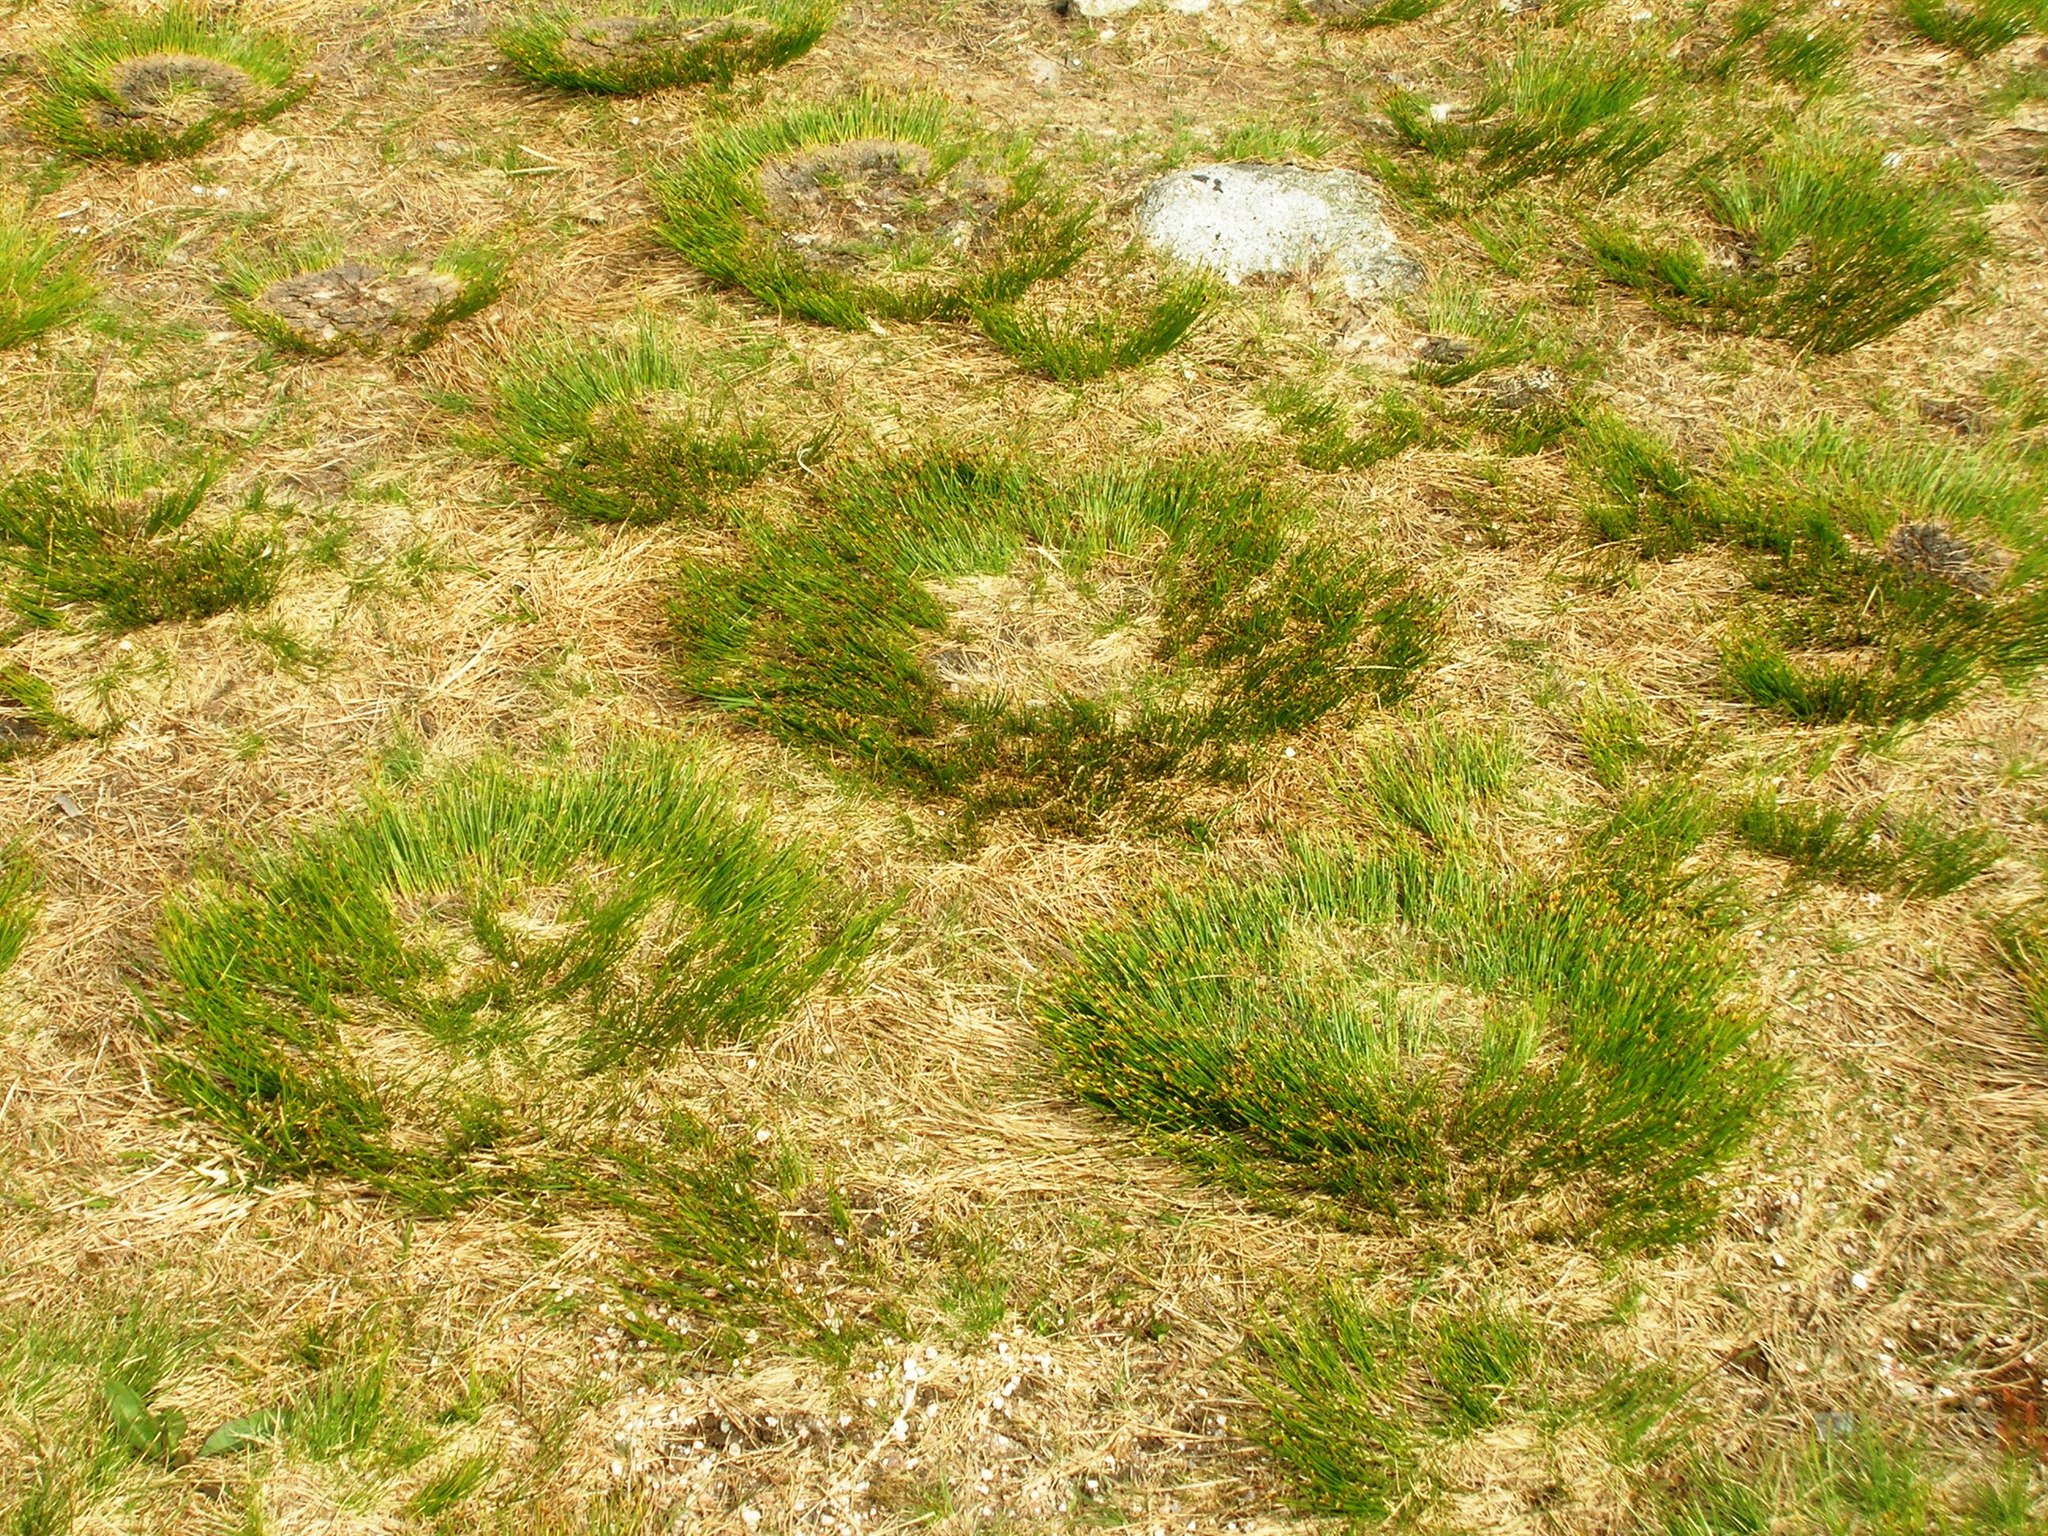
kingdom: Plantae
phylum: Tracheophyta
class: Liliopsida
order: Poales
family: Juncaceae
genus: Juncus
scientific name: Juncus squarrosus
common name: Heath rush
